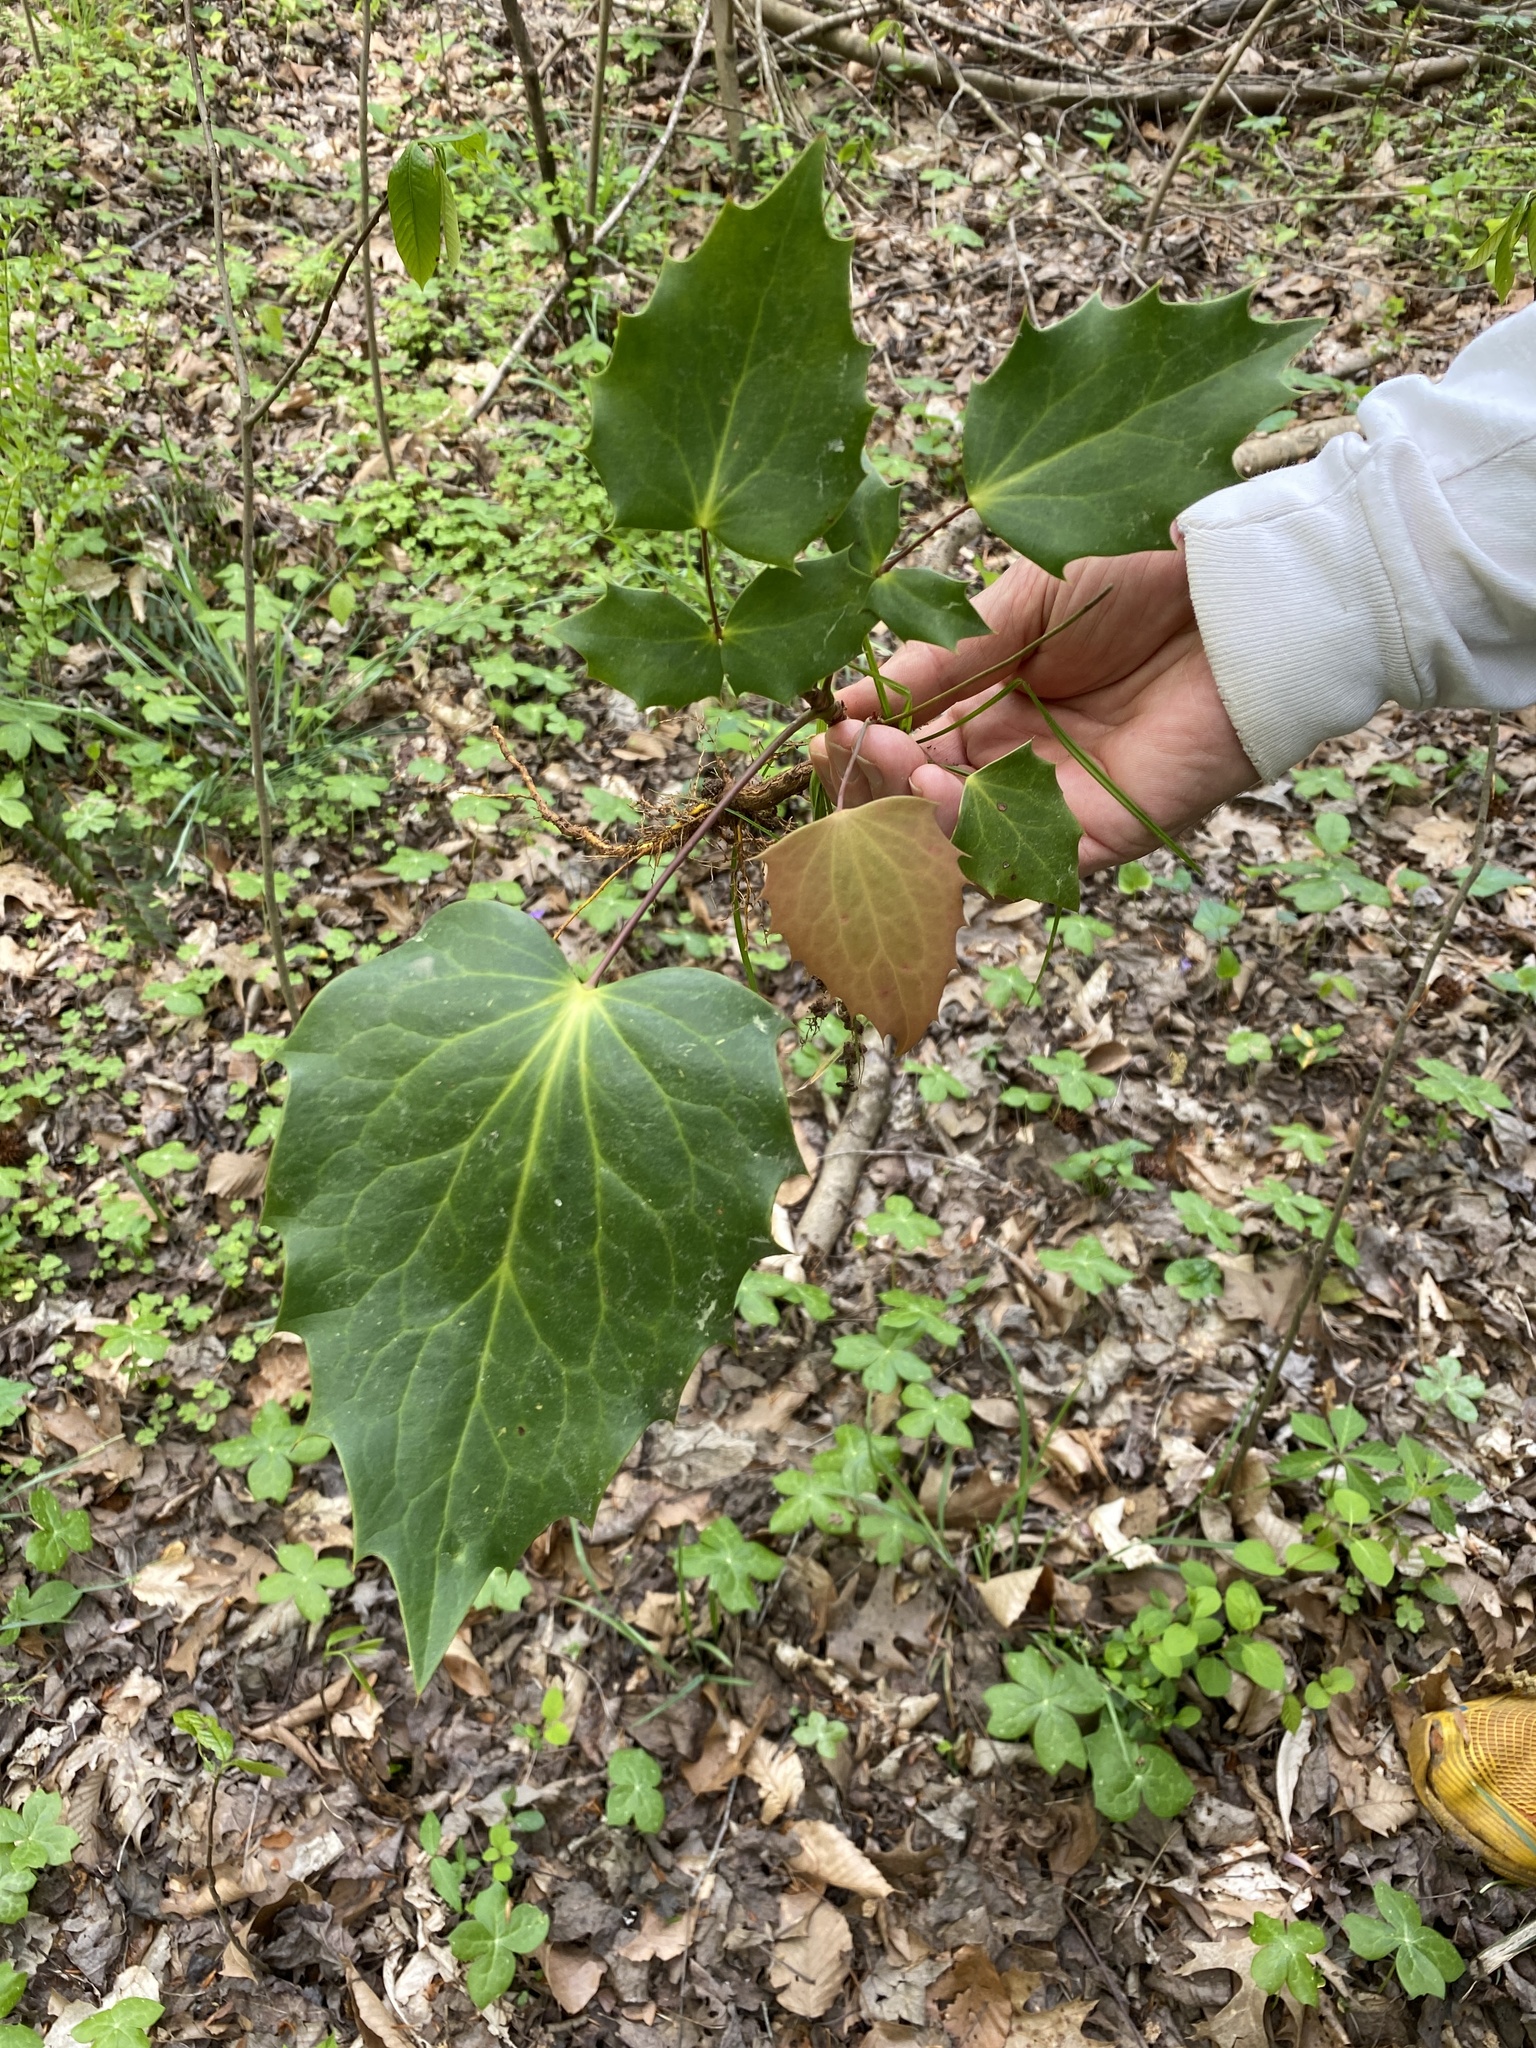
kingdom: Plantae
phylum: Tracheophyta
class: Magnoliopsida
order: Ranunculales
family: Berberidaceae
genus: Mahonia
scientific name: Mahonia bealei
